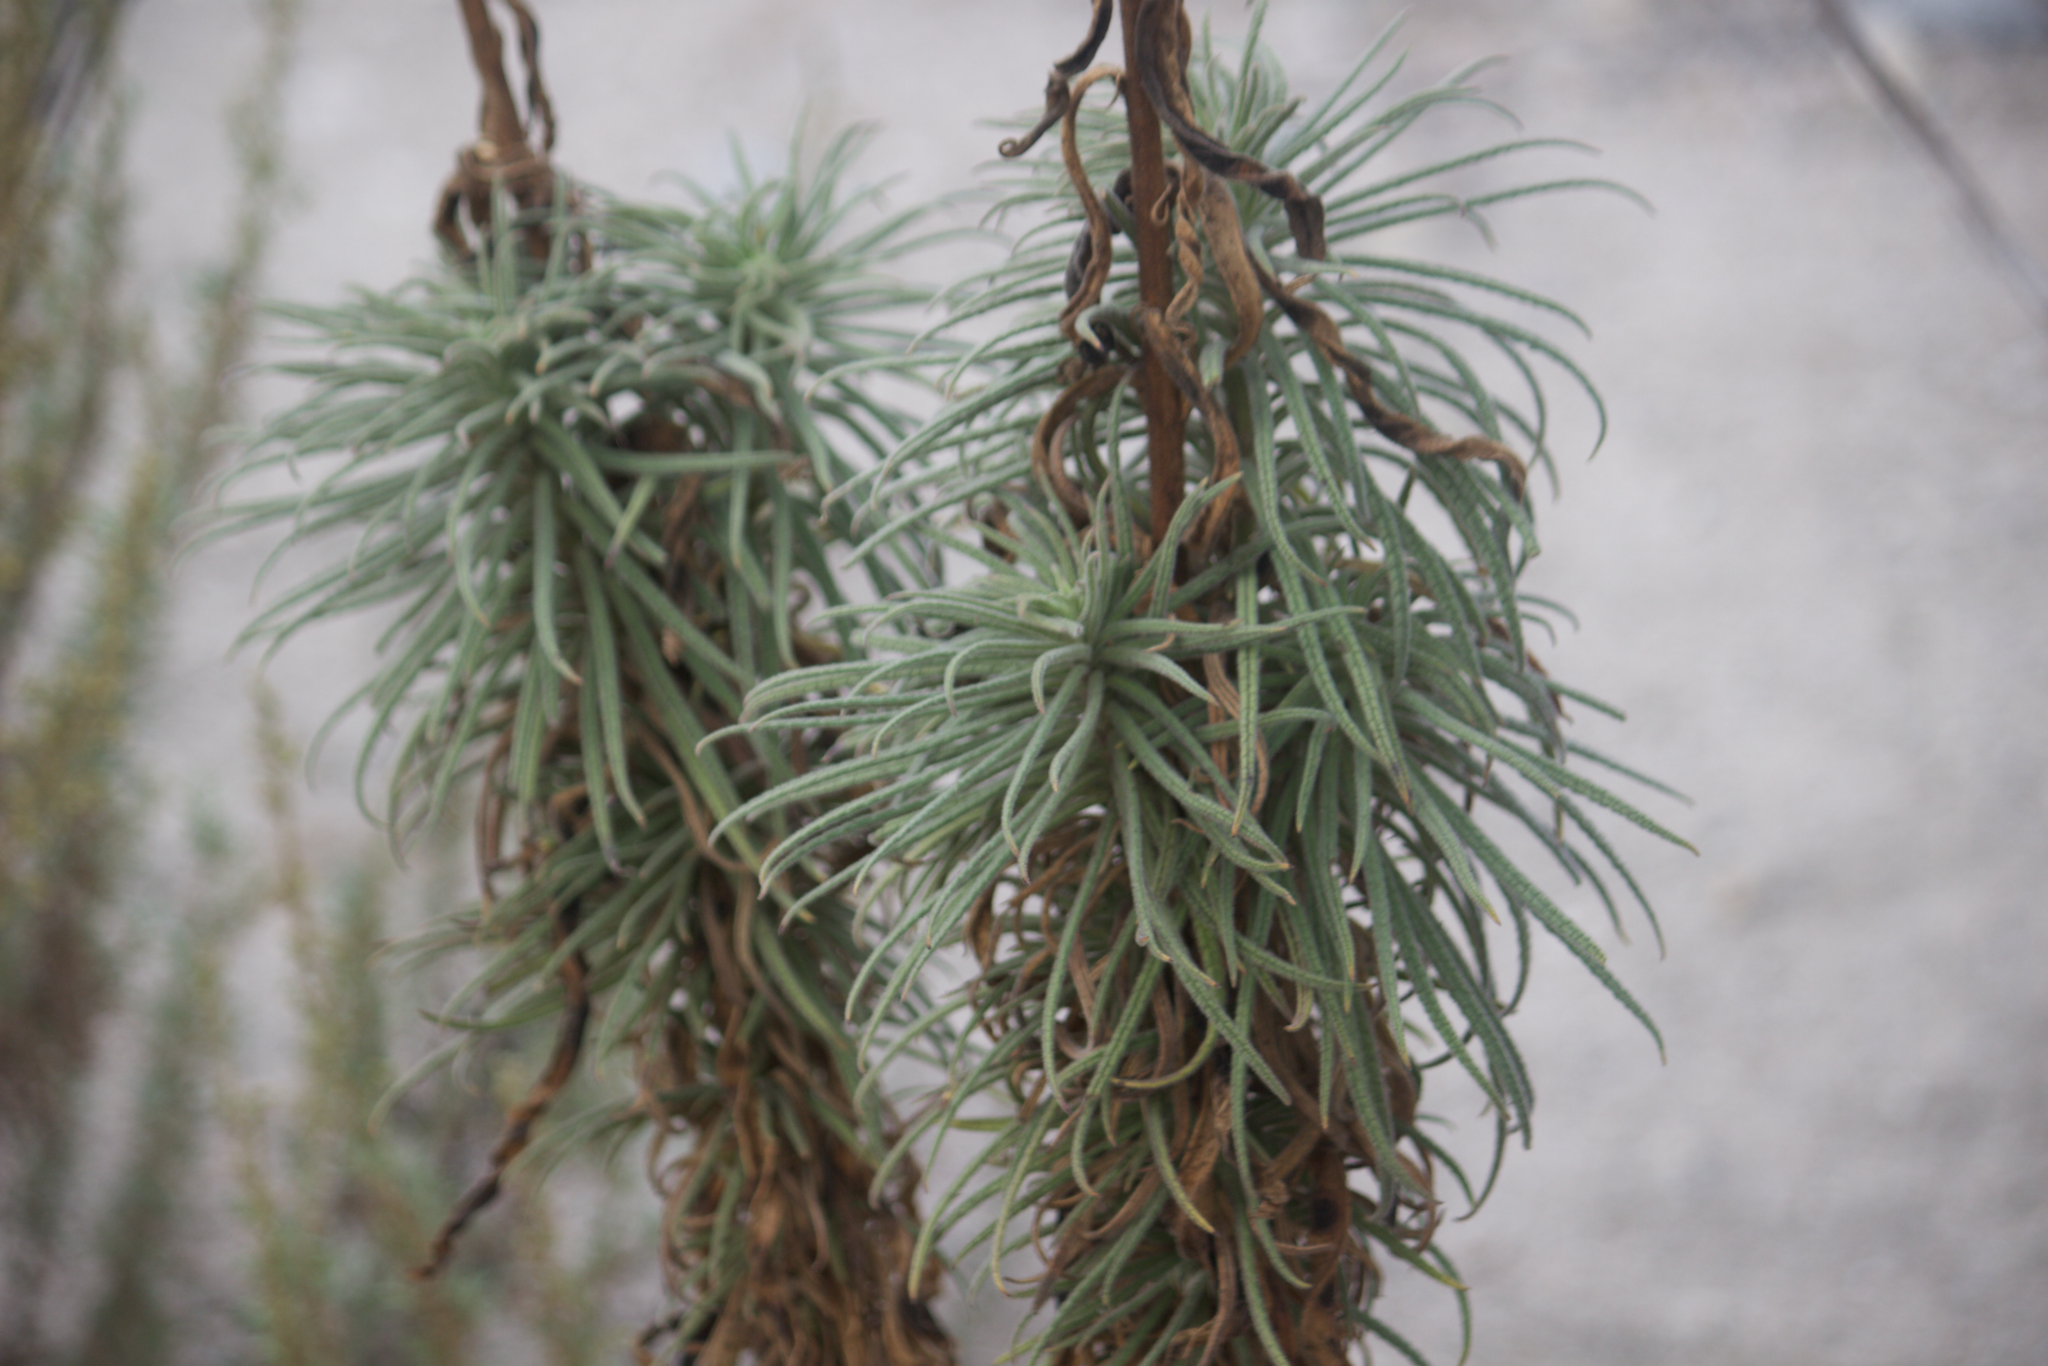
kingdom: Plantae
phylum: Tracheophyta
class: Magnoliopsida
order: Boraginales
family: Namaceae
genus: Turricula
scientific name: Turricula parryi
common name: Poodle-dog-bush
